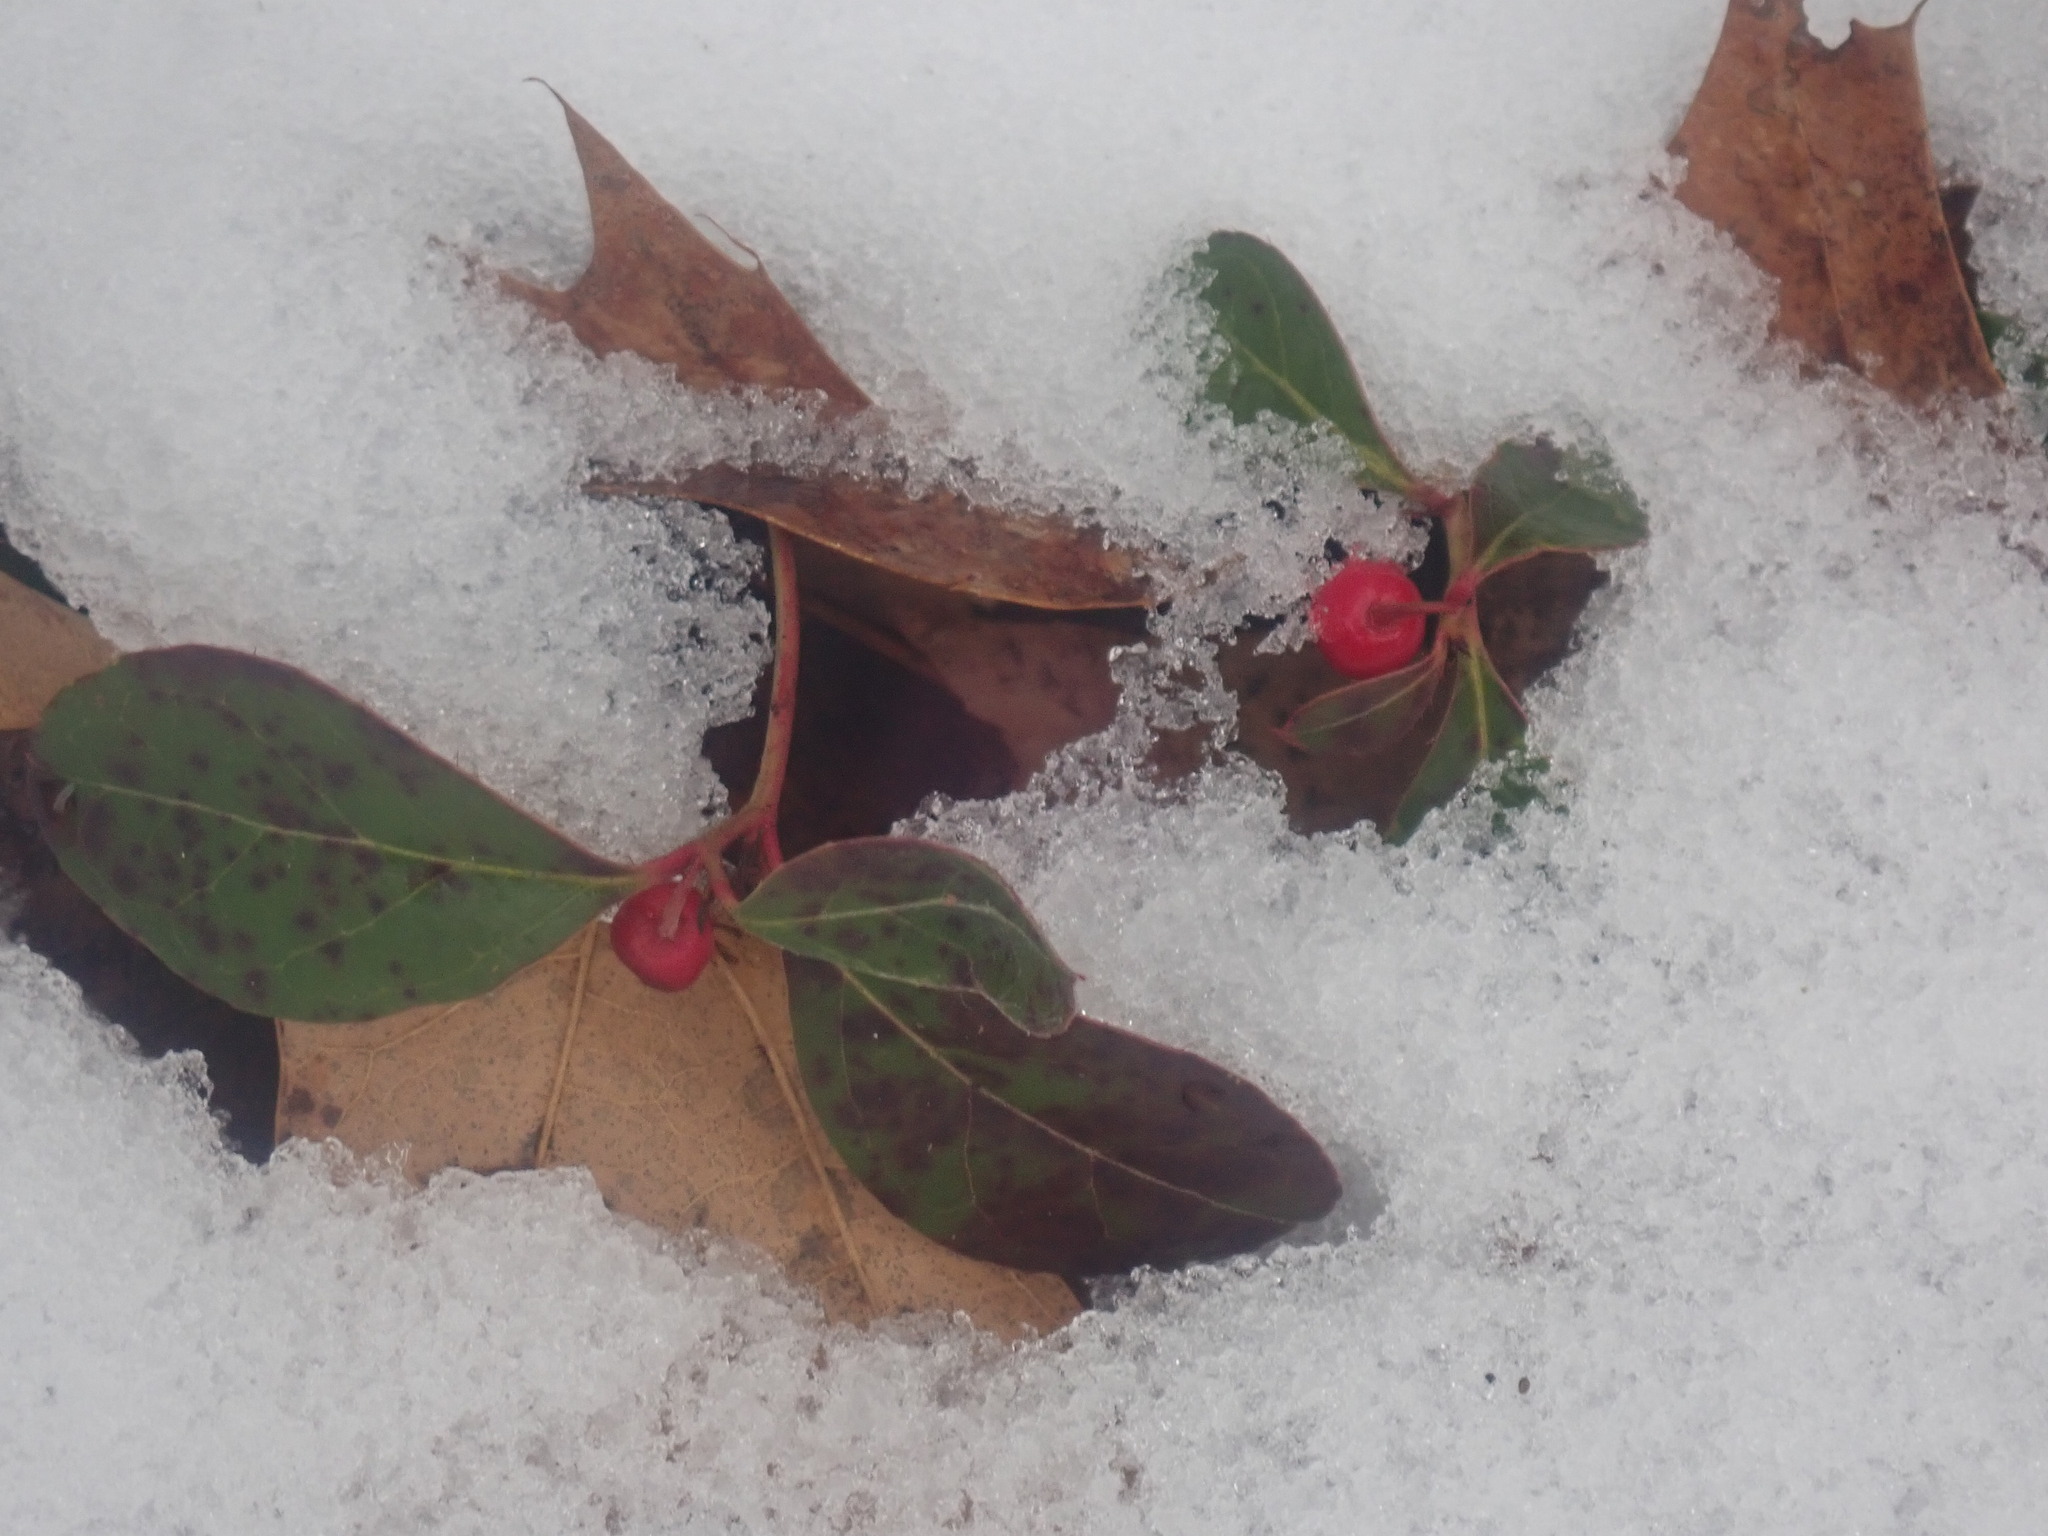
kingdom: Plantae
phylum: Tracheophyta
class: Magnoliopsida
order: Ericales
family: Ericaceae
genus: Gaultheria
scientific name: Gaultheria procumbens
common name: Checkerberry
